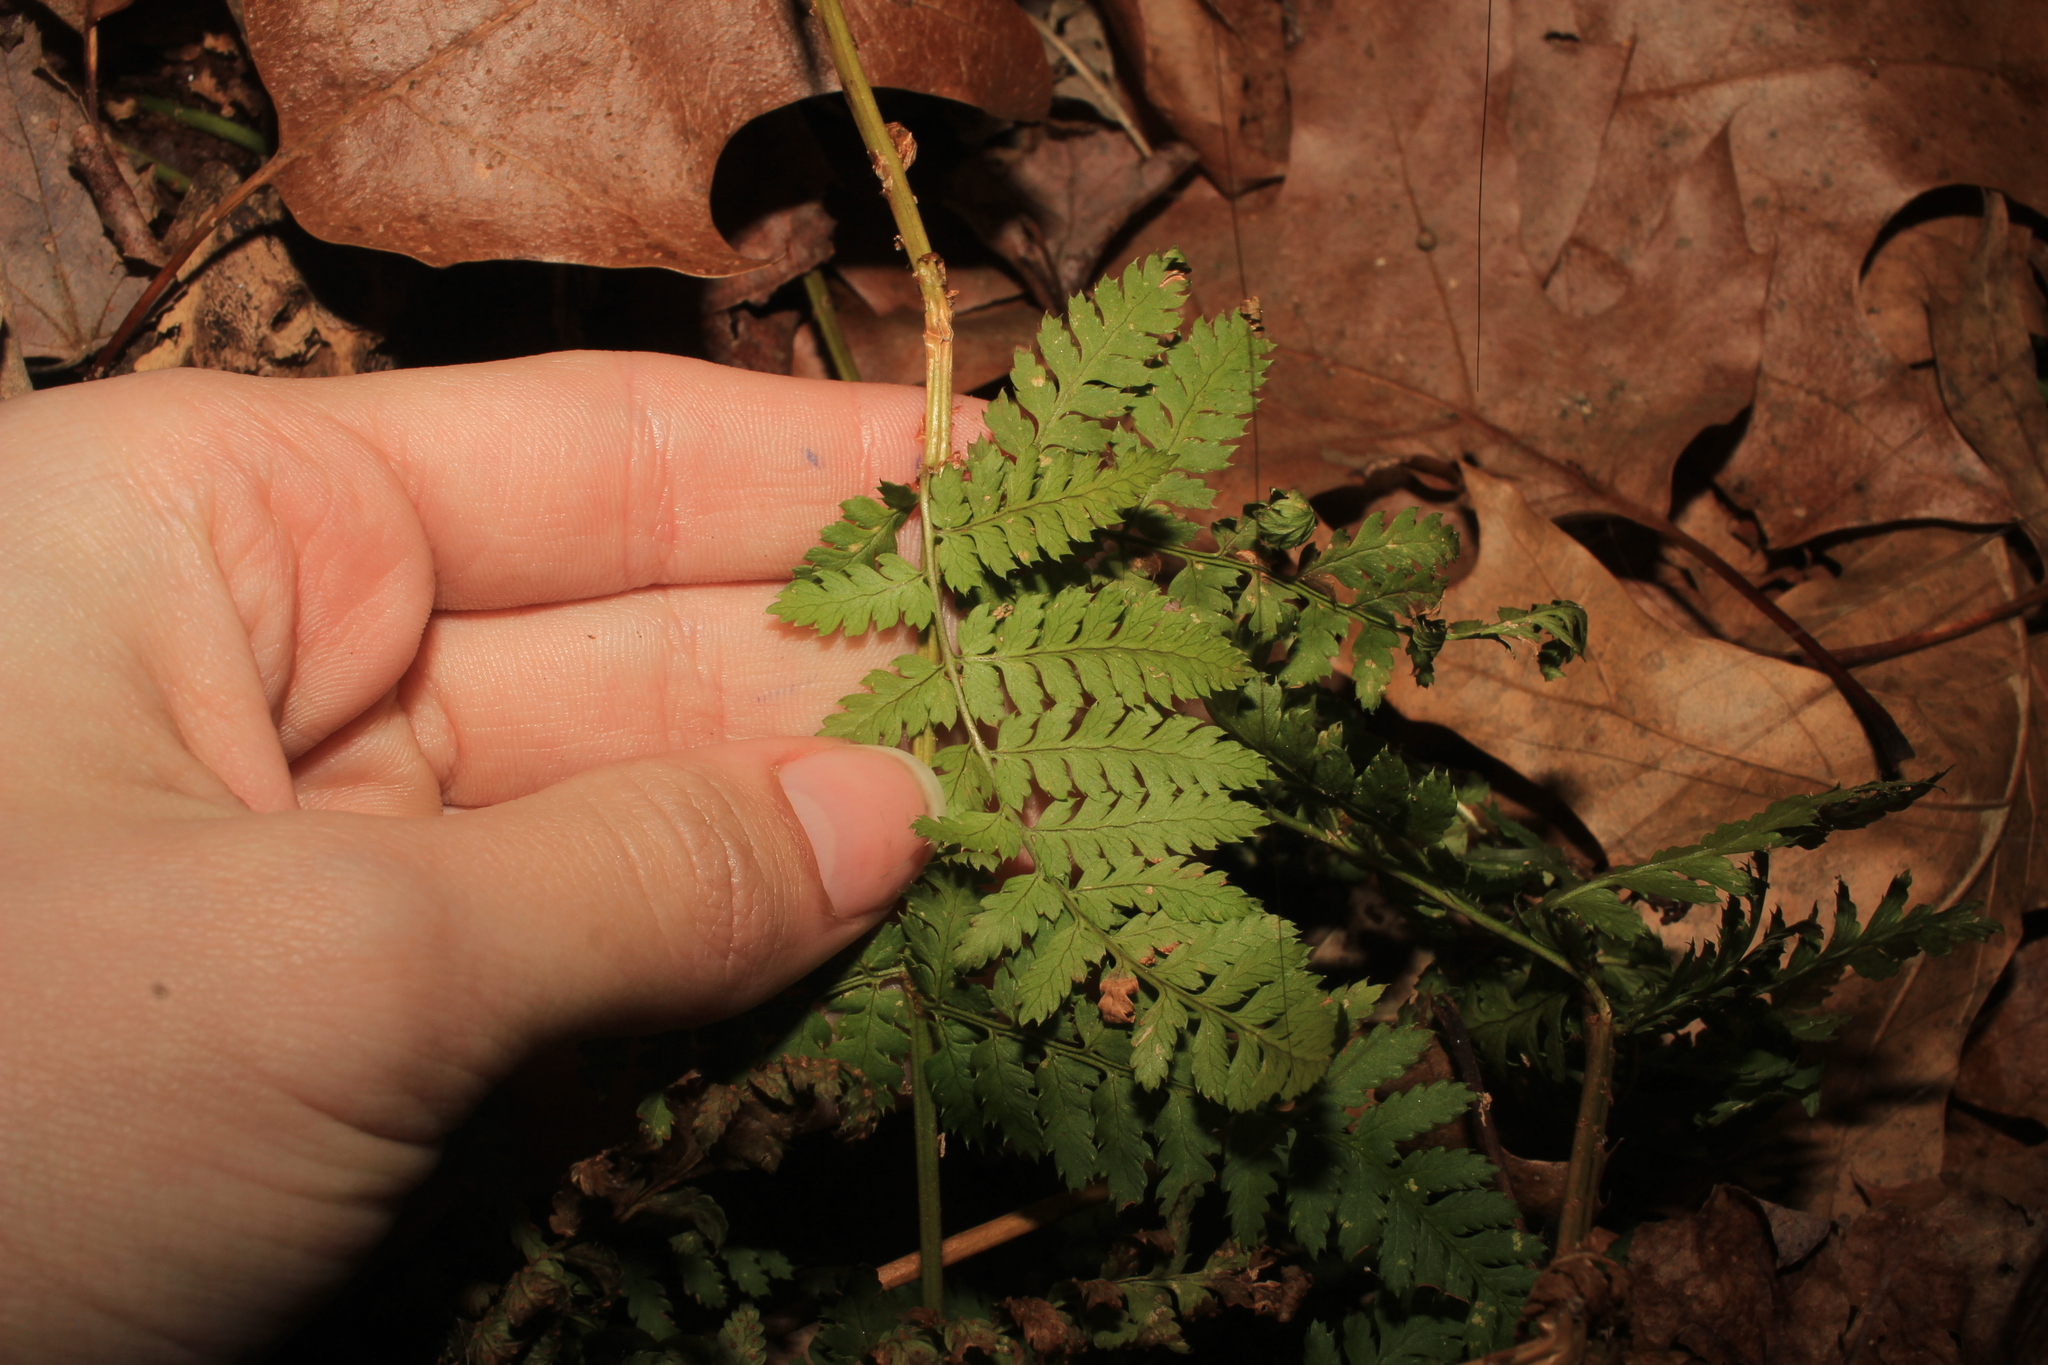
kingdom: Plantae
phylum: Tracheophyta
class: Polypodiopsida
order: Polypodiales
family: Dryopteridaceae
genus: Dryopteris
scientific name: Dryopteris intermedia
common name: Evergreen wood fern
